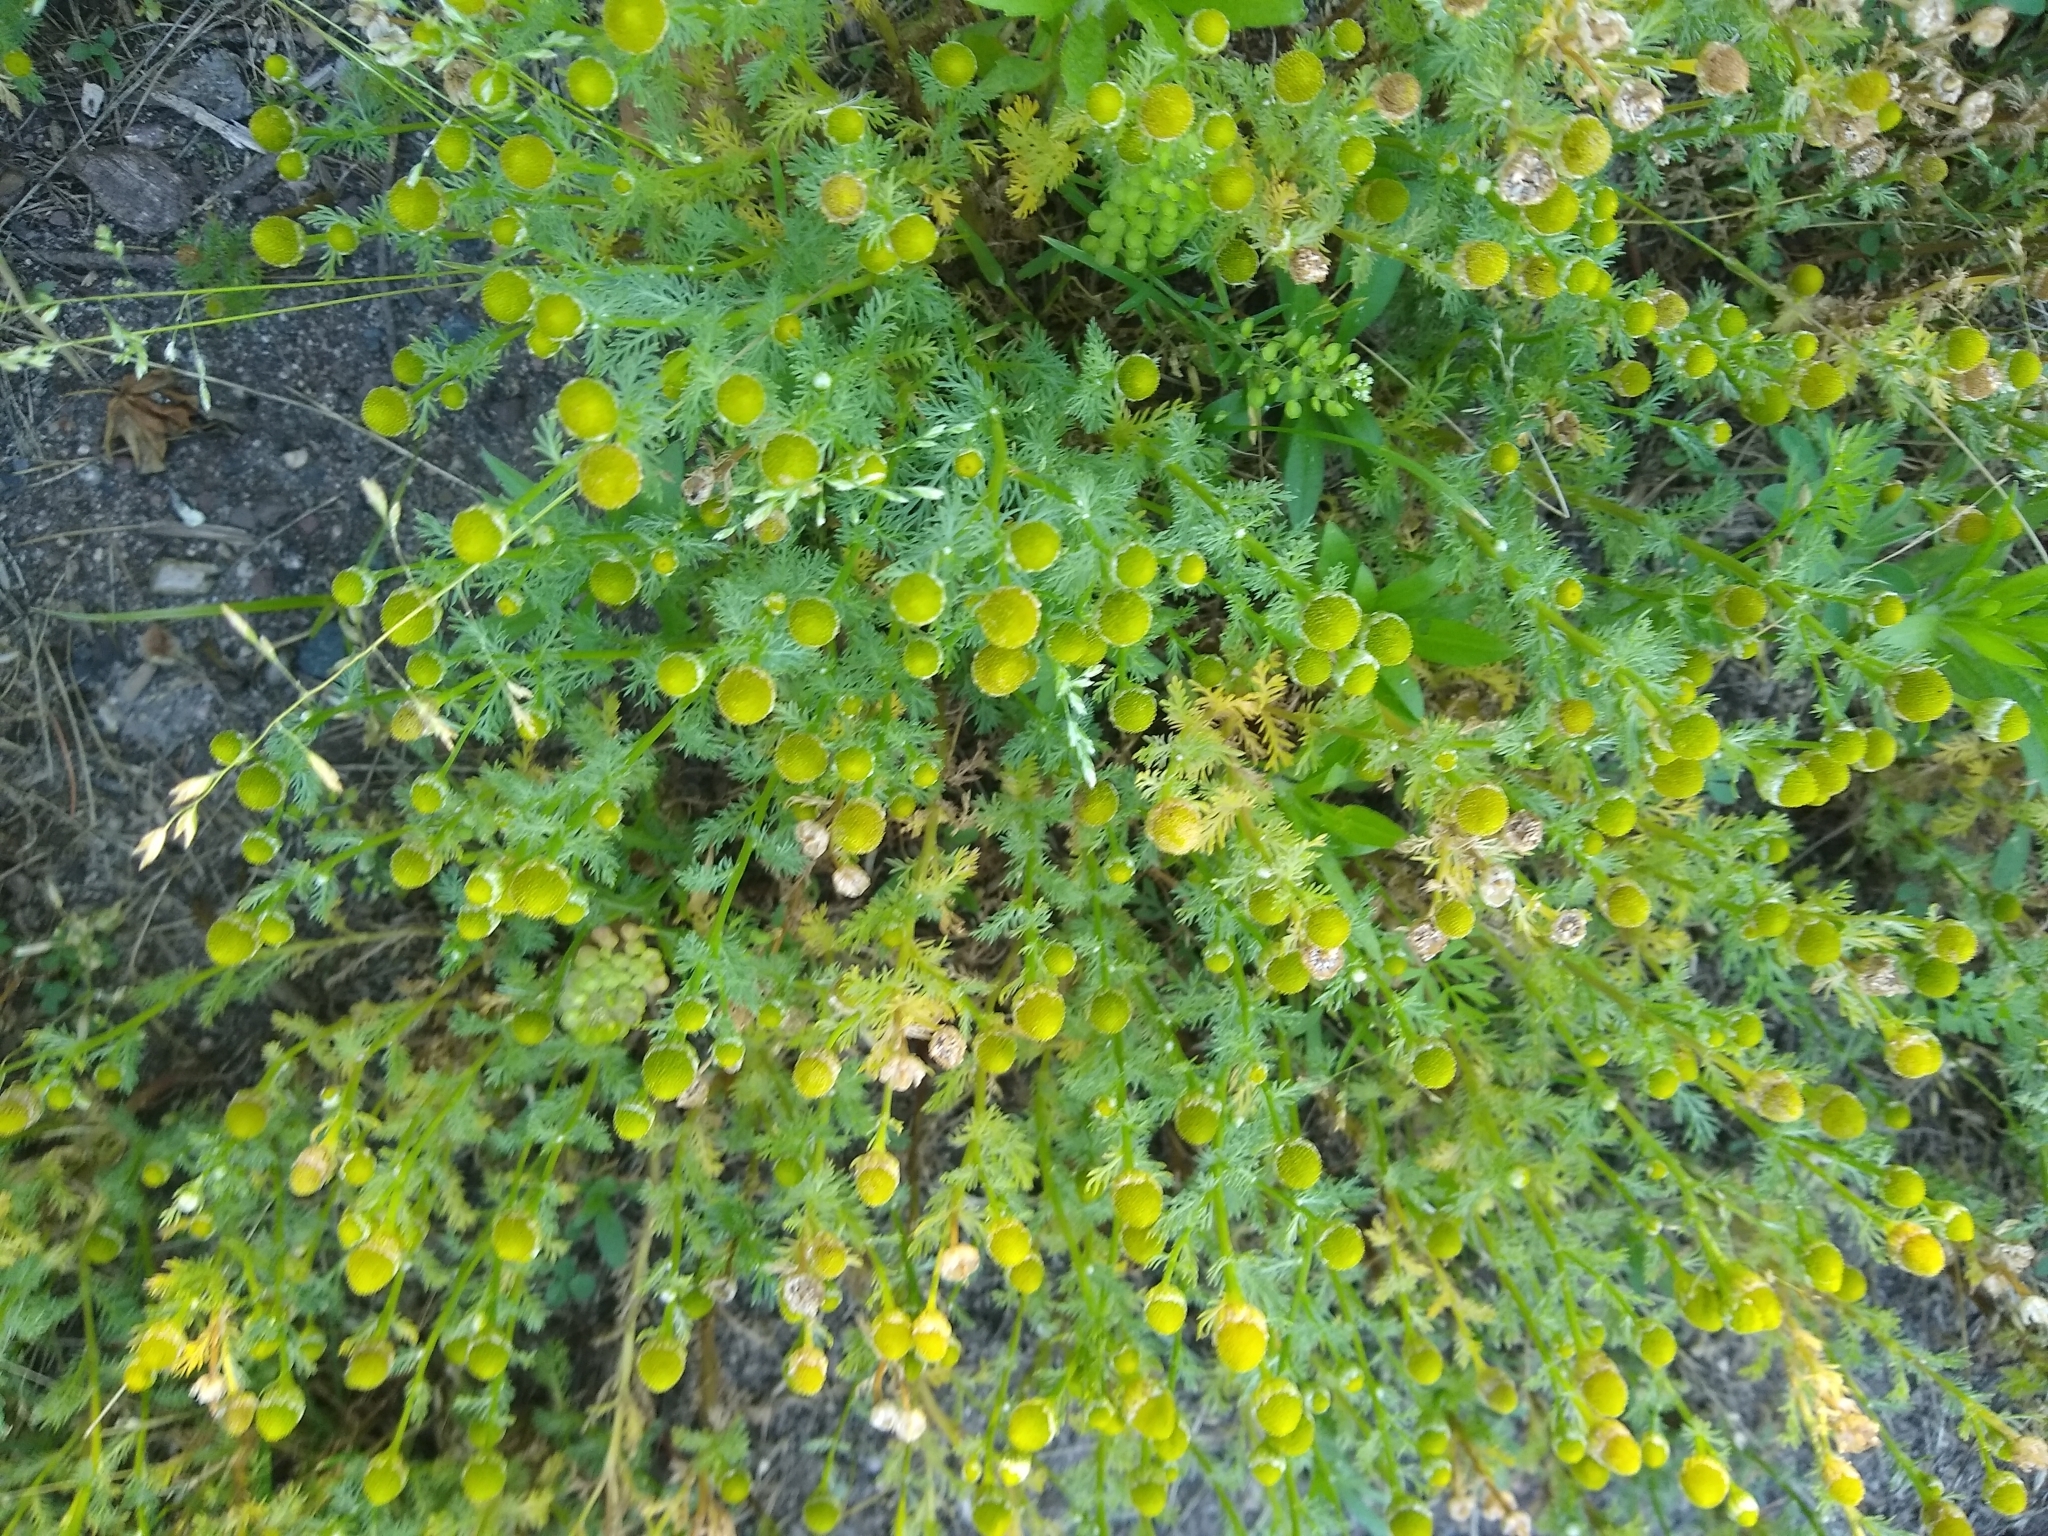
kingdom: Plantae
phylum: Tracheophyta
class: Magnoliopsida
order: Asterales
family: Asteraceae
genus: Matricaria
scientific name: Matricaria discoidea
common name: Disc mayweed
